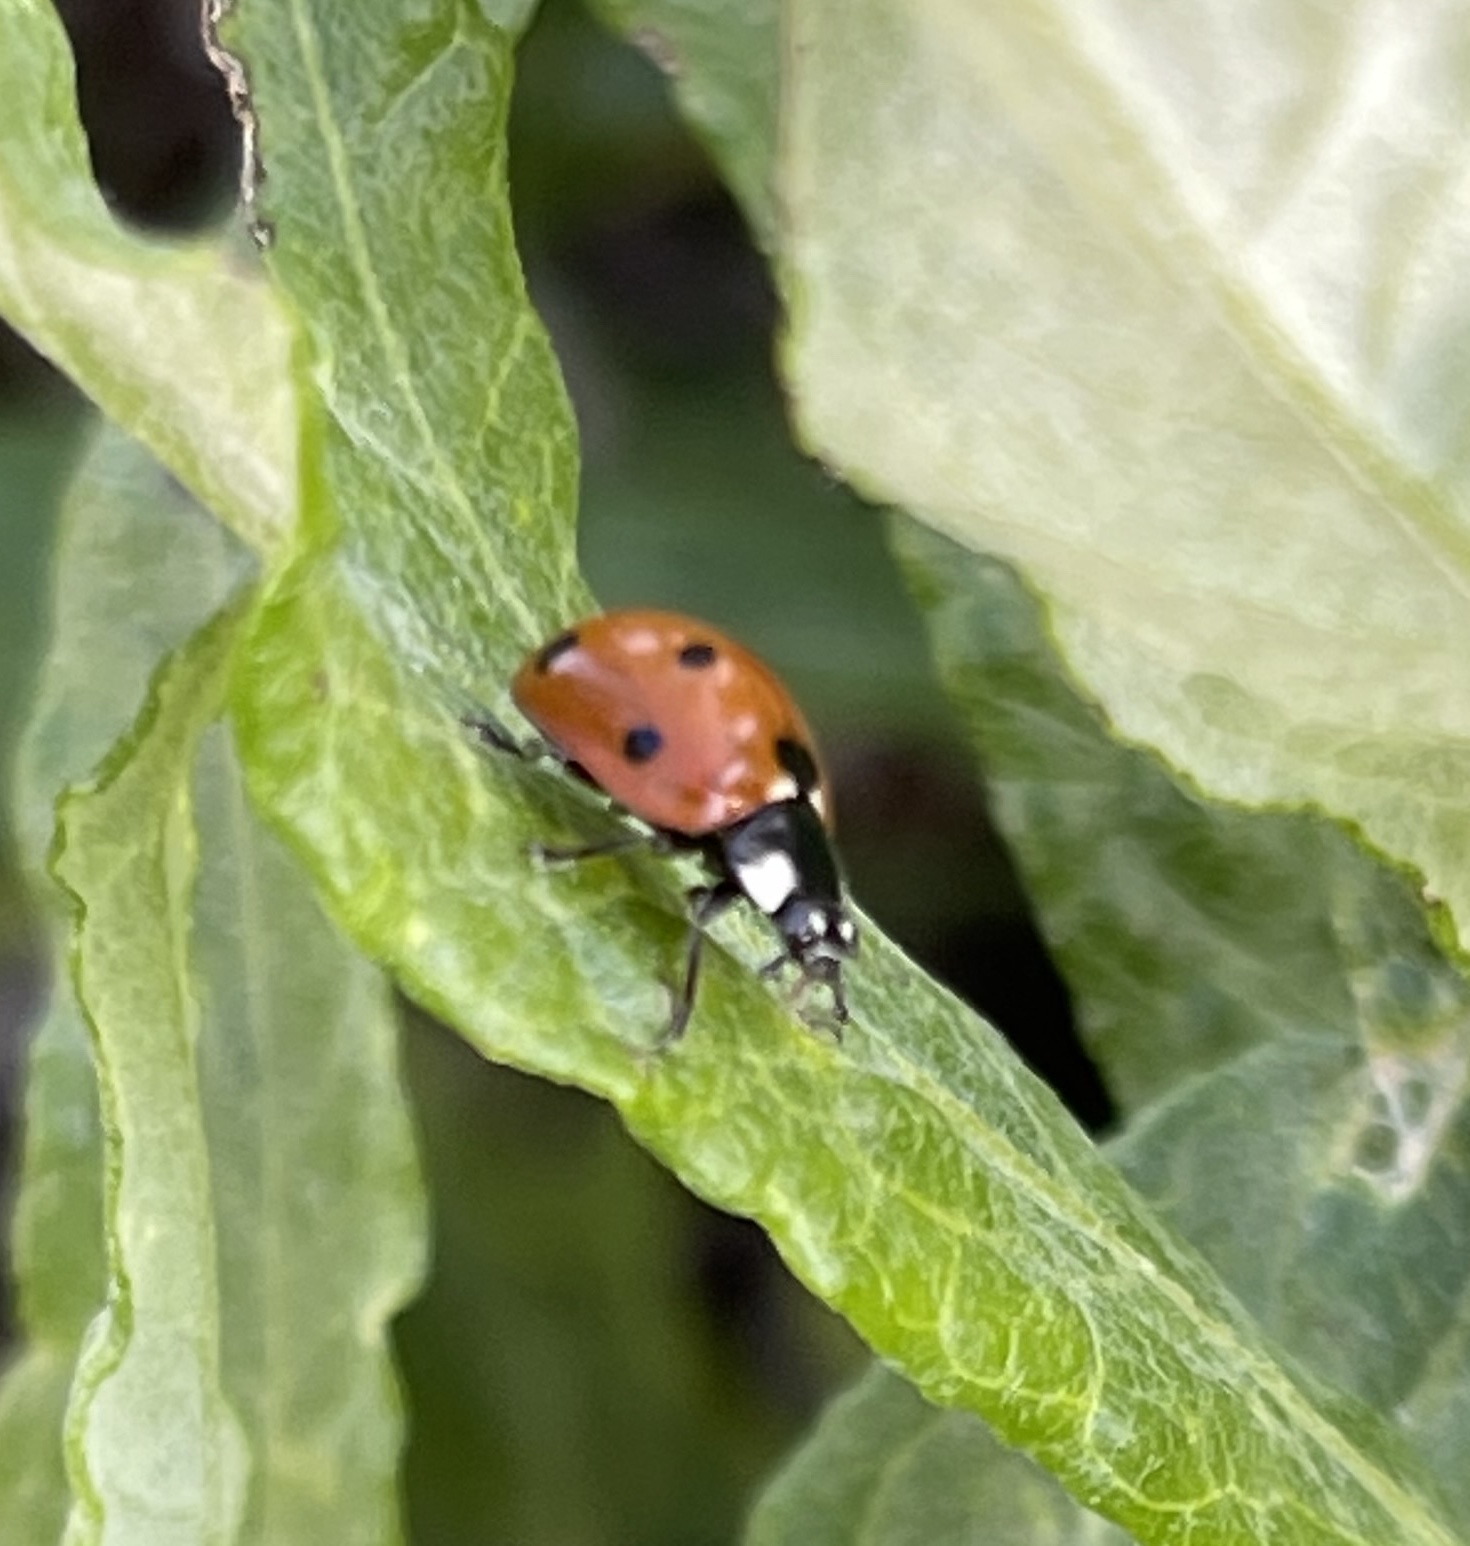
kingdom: Animalia
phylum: Arthropoda
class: Insecta
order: Coleoptera
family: Coccinellidae
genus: Coccinella
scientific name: Coccinella septempunctata
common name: Sevenspotted lady beetle
